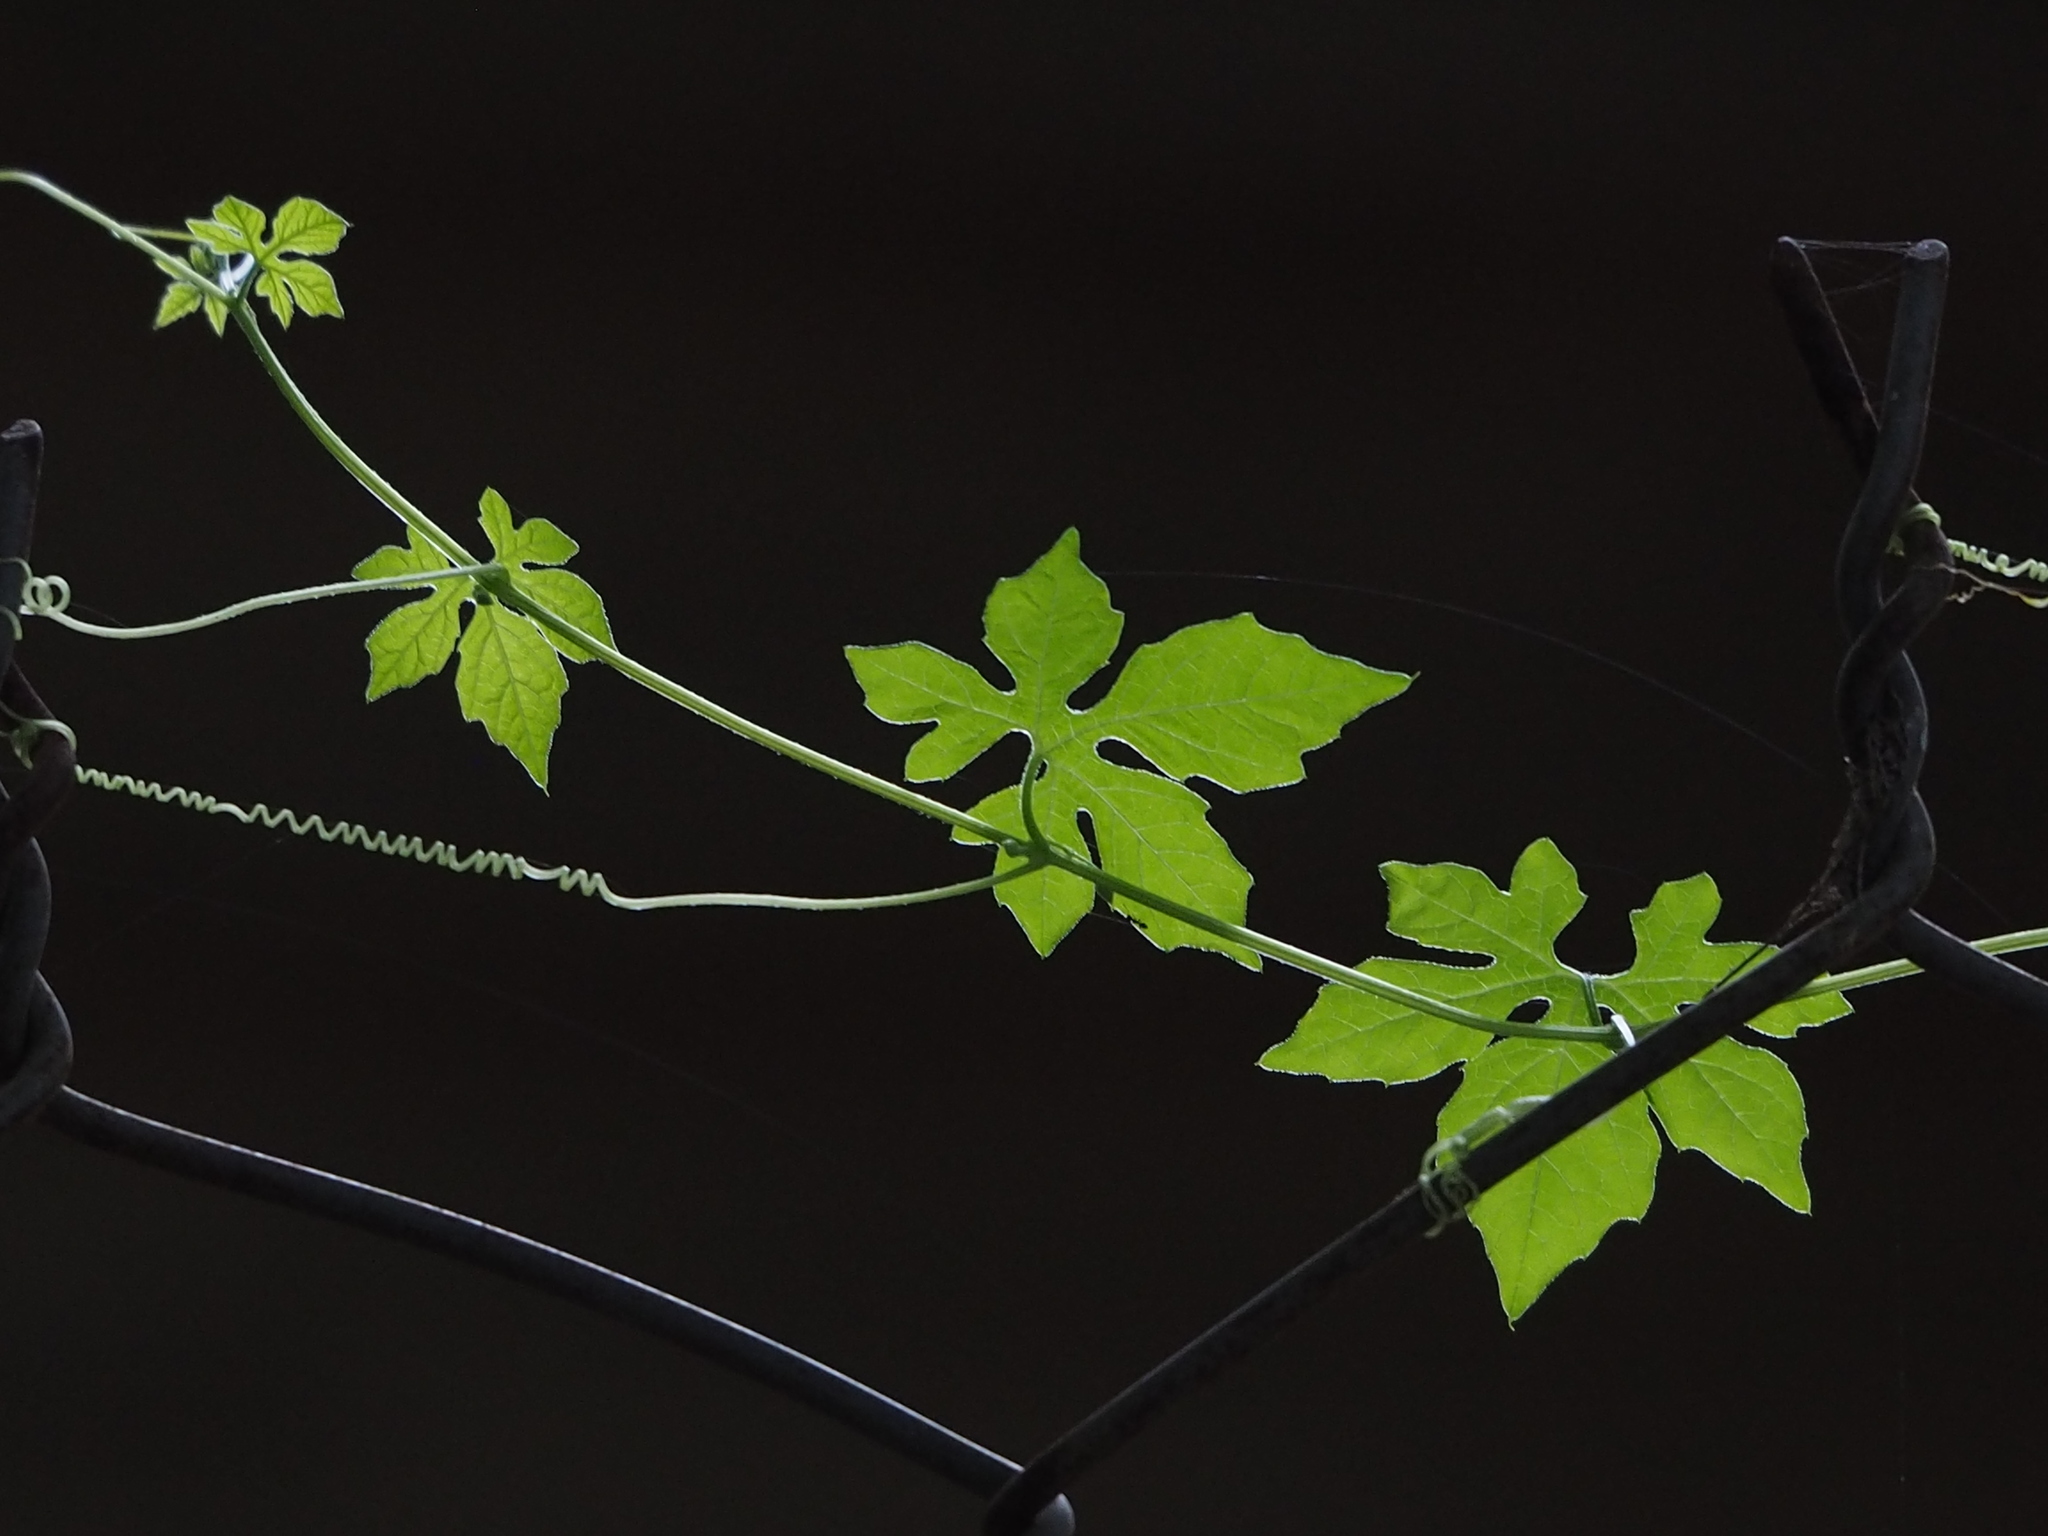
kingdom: Plantae
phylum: Tracheophyta
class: Magnoliopsida
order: Cucurbitales
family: Cucurbitaceae
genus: Momordica
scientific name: Momordica charantia
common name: Balsampear
